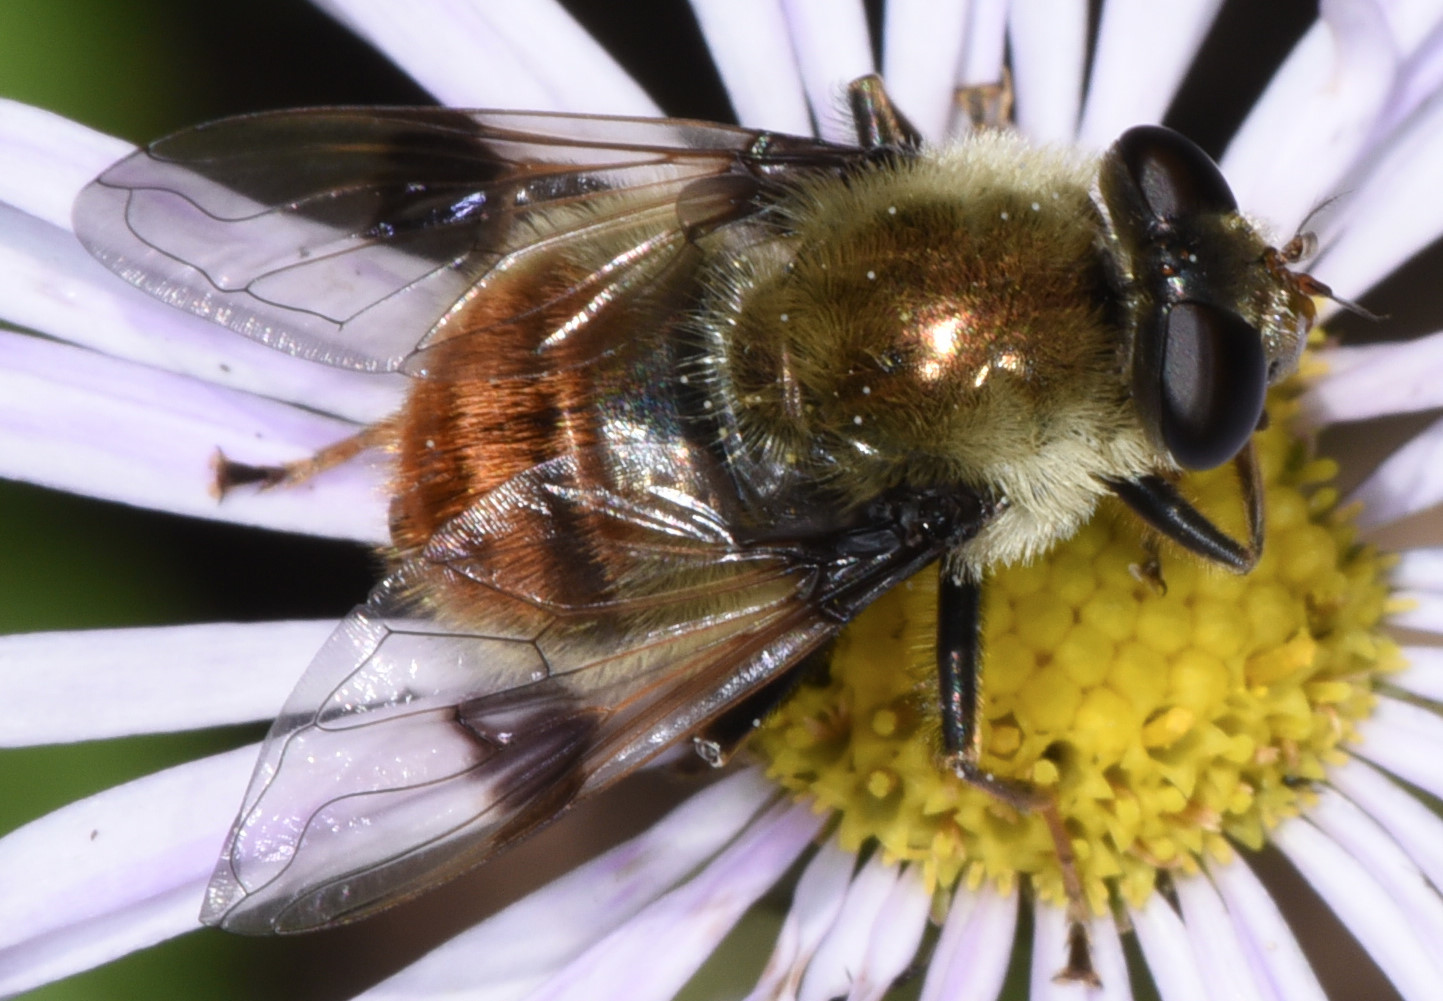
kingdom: Animalia
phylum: Arthropoda
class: Insecta
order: Diptera
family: Syrphidae
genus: Sericomyia
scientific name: Sericomyia flagrans
